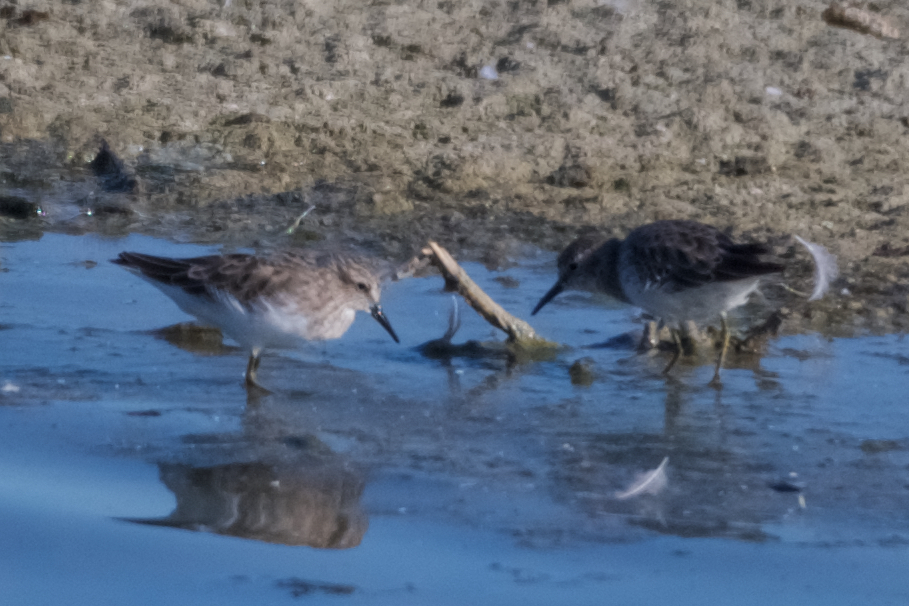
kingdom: Animalia
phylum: Chordata
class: Aves
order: Charadriiformes
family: Scolopacidae
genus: Calidris
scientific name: Calidris minutilla
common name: Least sandpiper
